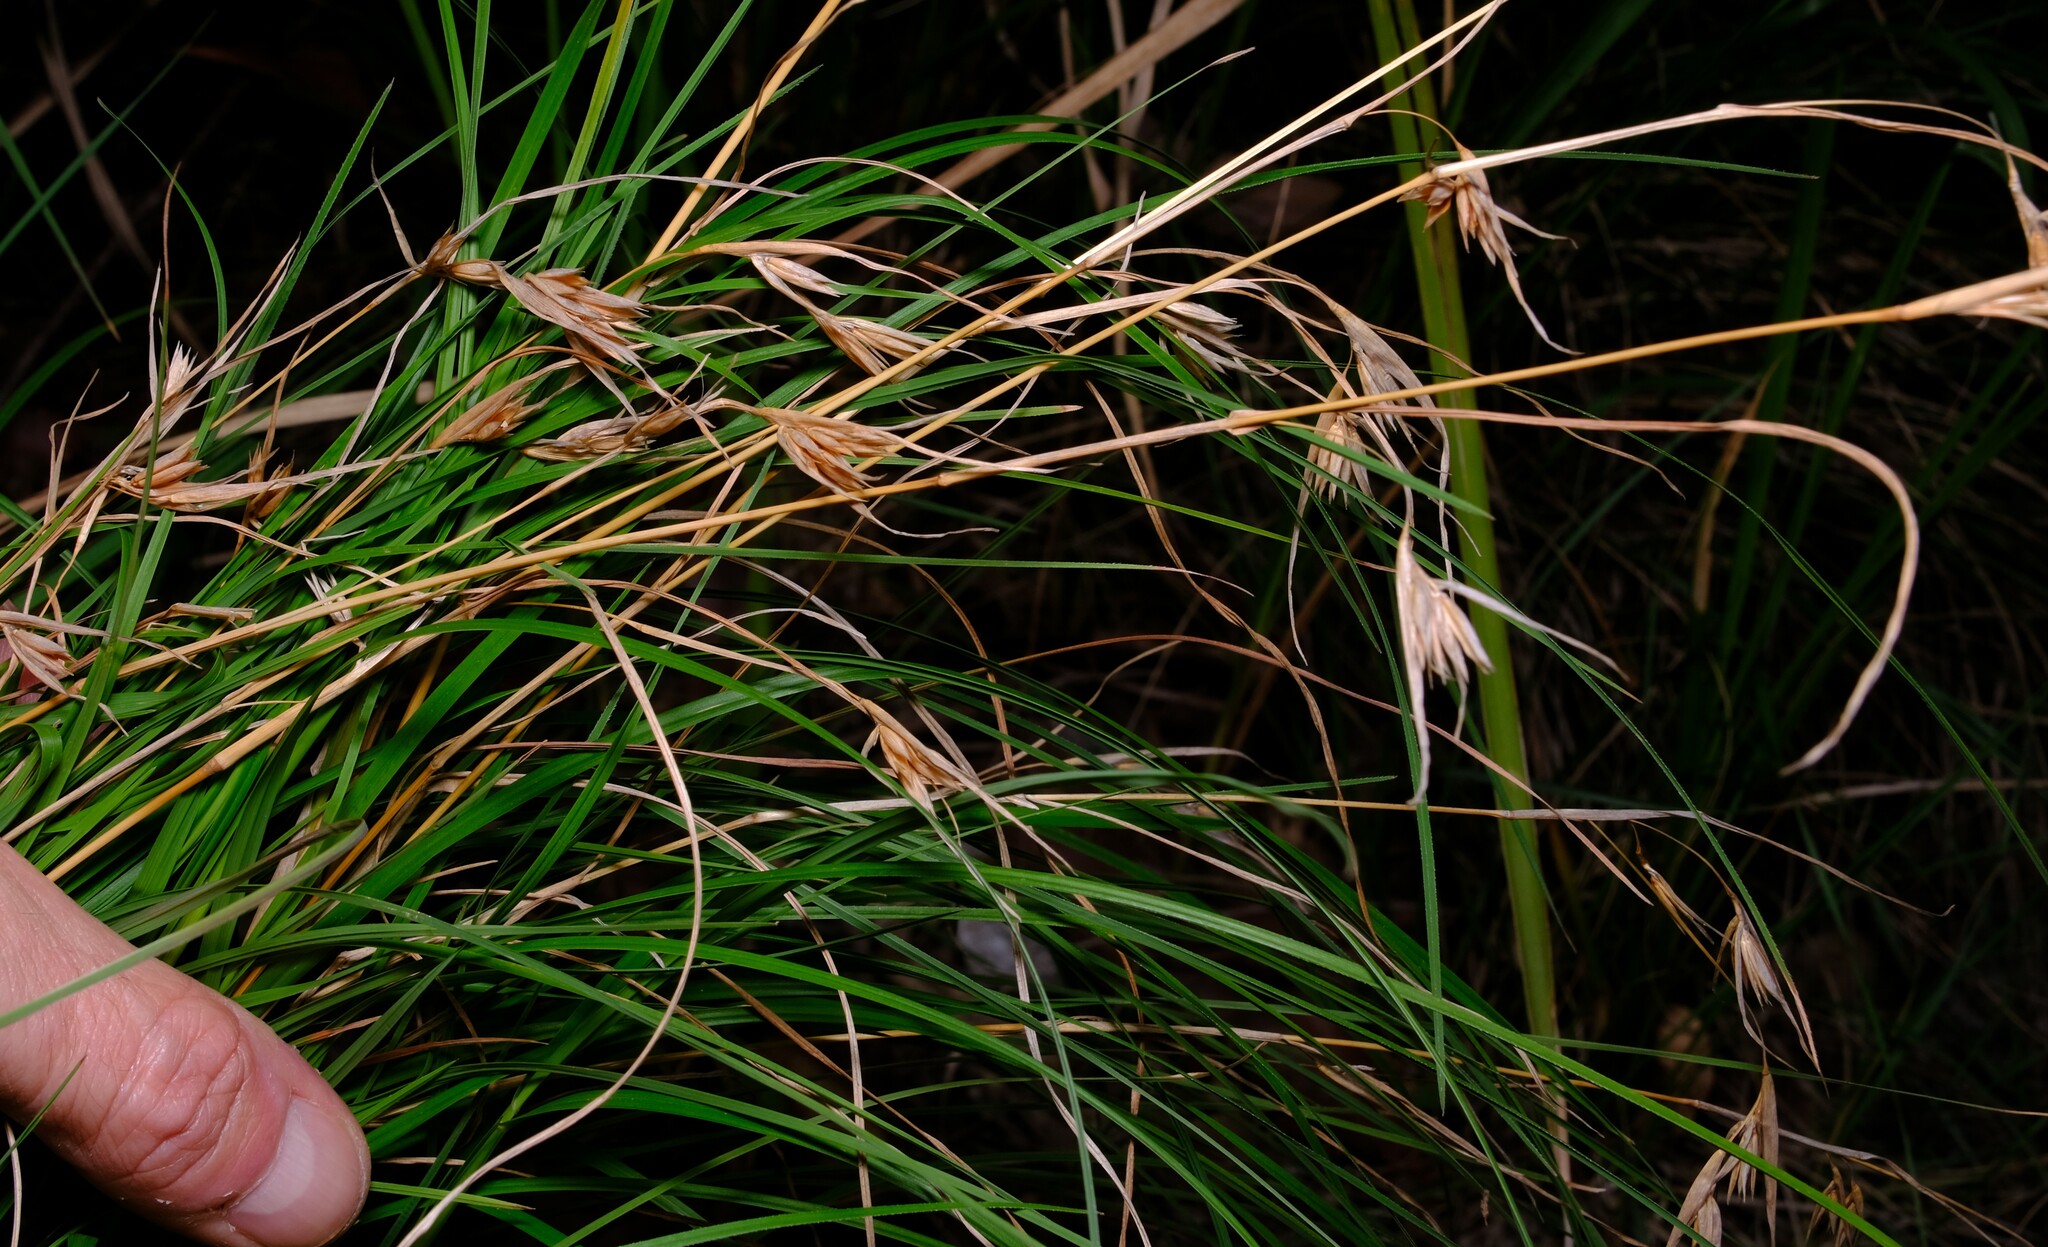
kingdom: Plantae
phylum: Tracheophyta
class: Liliopsida
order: Poales
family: Poaceae
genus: Themeda
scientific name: Themeda triandra
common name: Kangaroo grass
